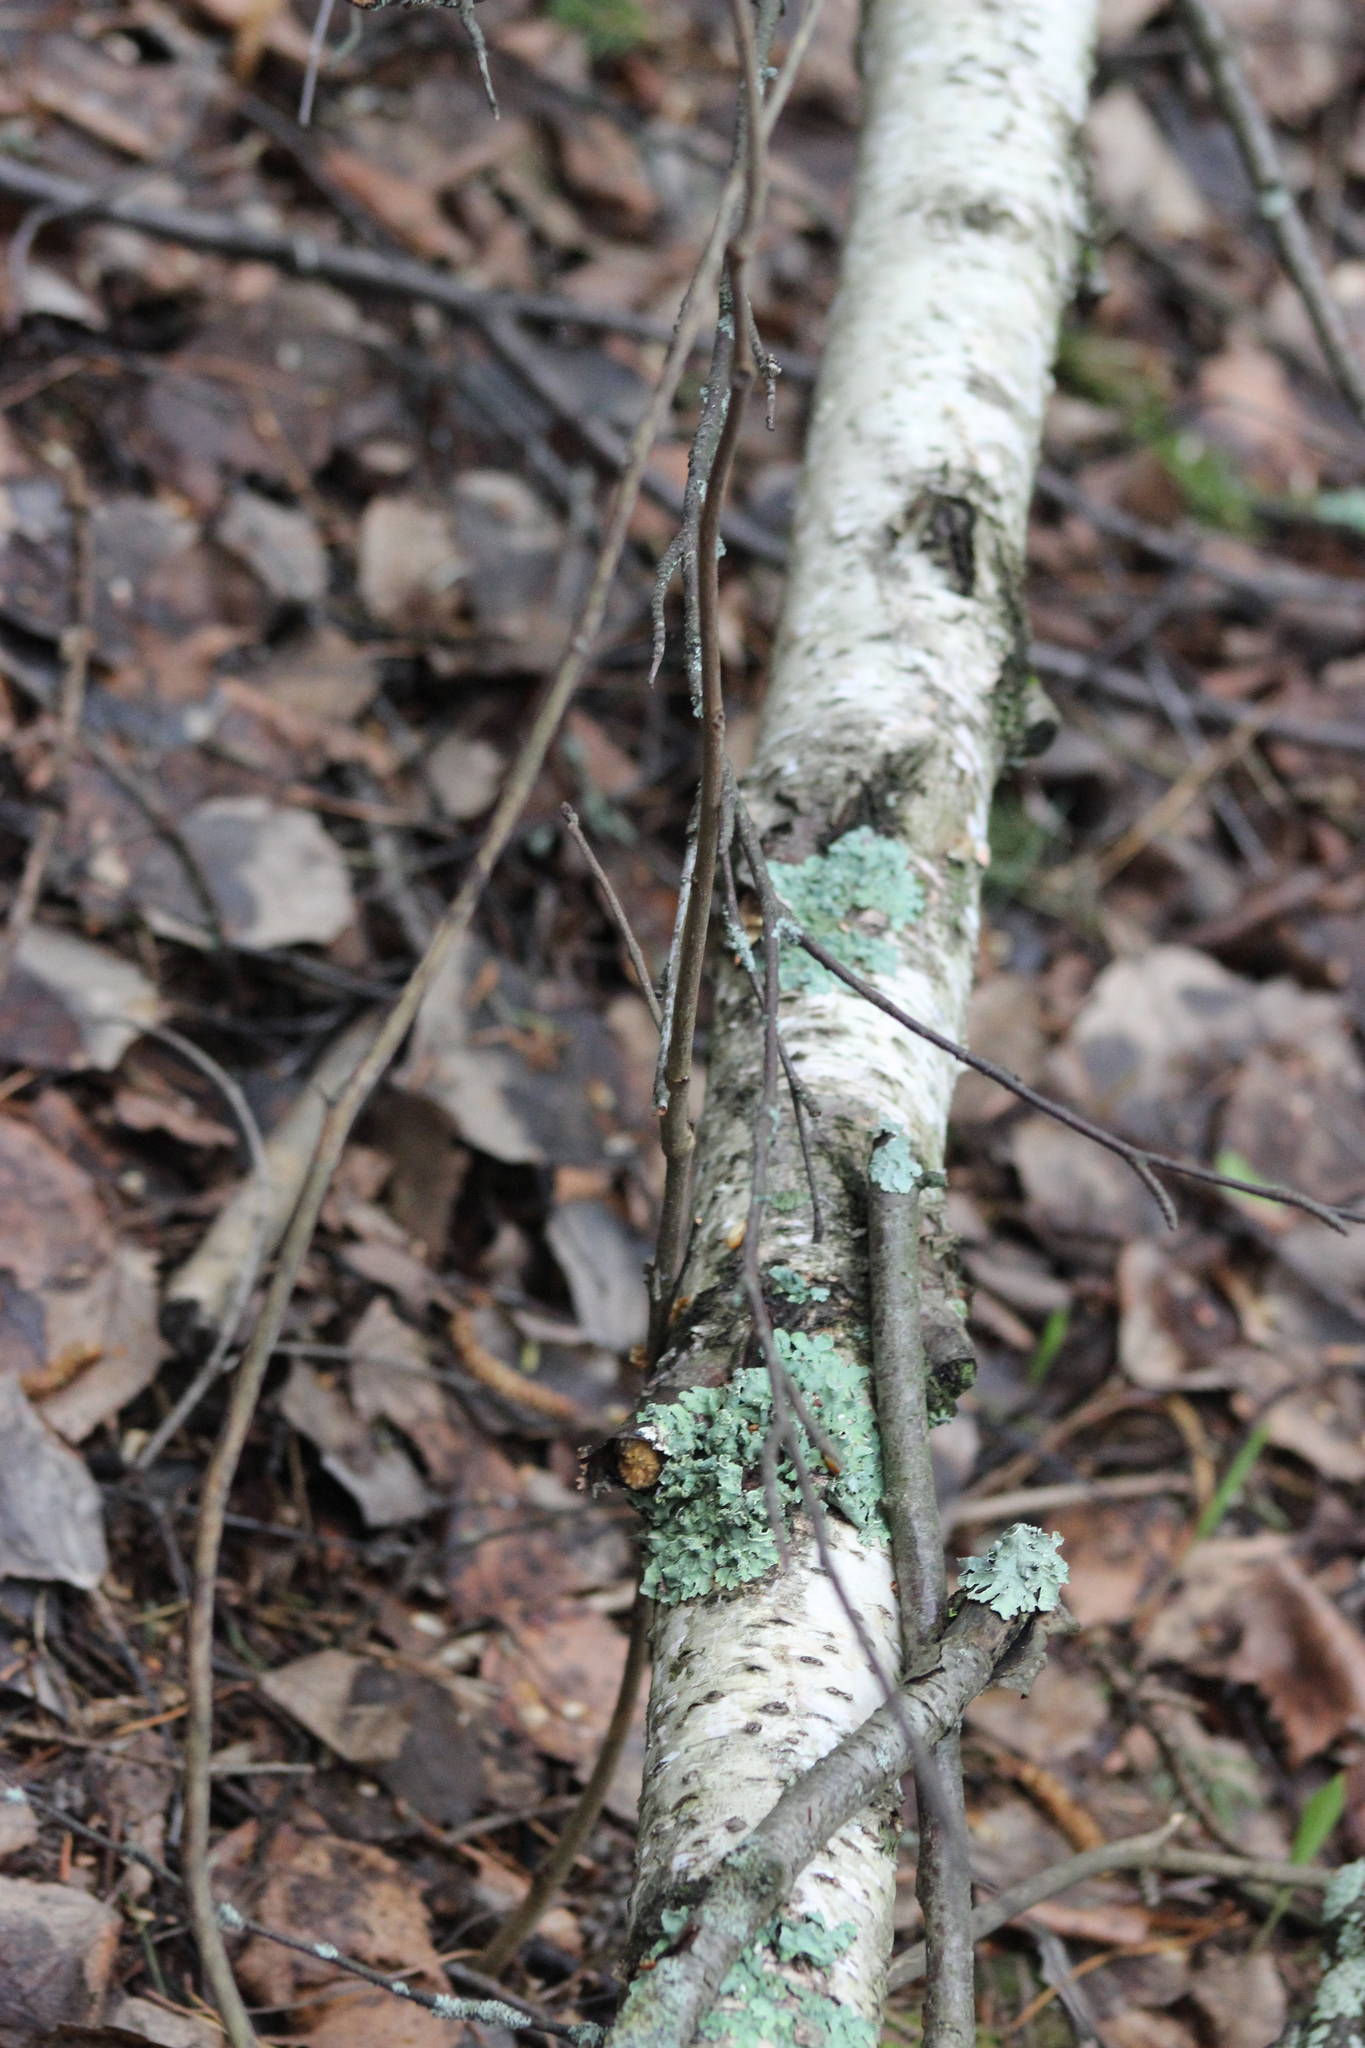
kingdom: Fungi
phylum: Ascomycota
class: Lecanoromycetes
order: Lecanorales
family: Parmeliaceae
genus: Parmelia
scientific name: Parmelia sulcata
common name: Netted shield lichen
